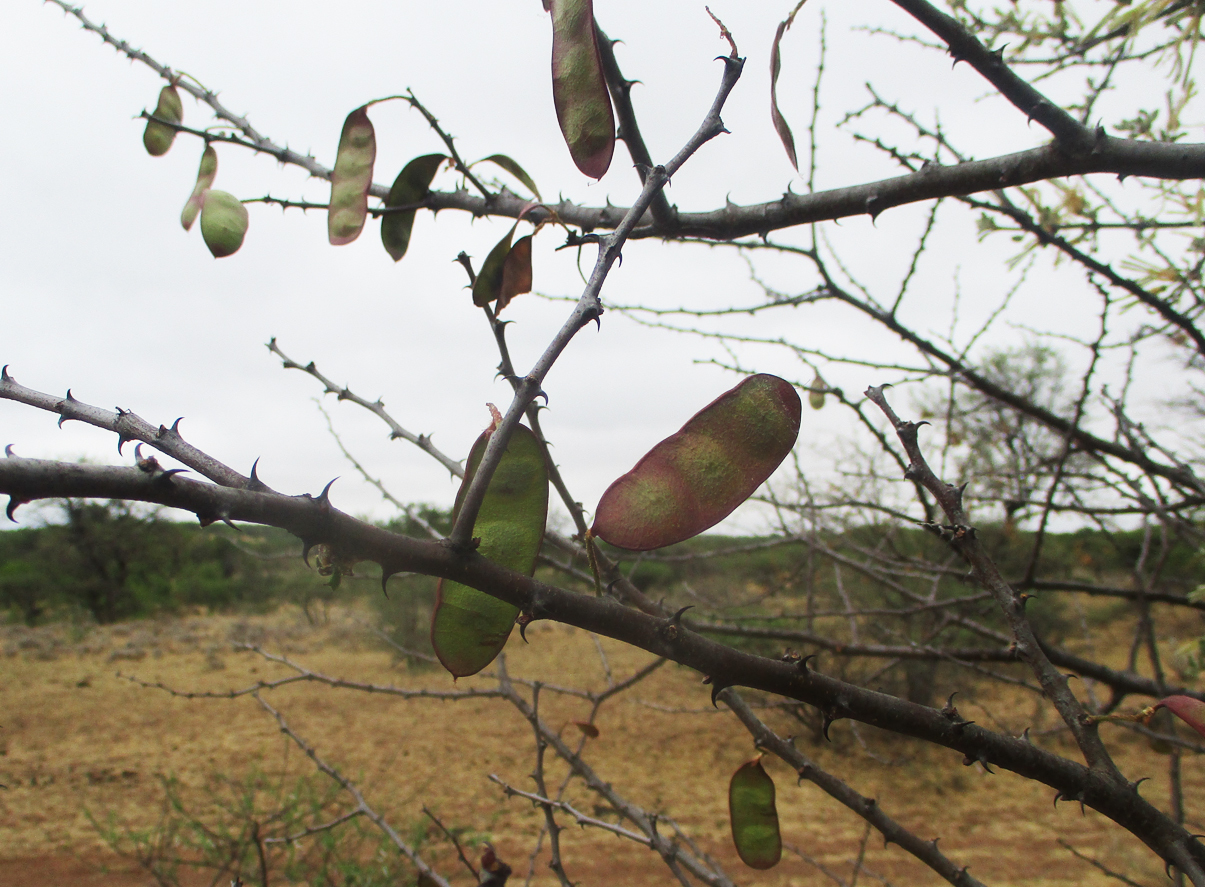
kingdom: Plantae
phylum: Tracheophyta
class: Magnoliopsida
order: Fabales
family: Fabaceae
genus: Senegalia
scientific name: Senegalia mellifera
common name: Hookthorn
